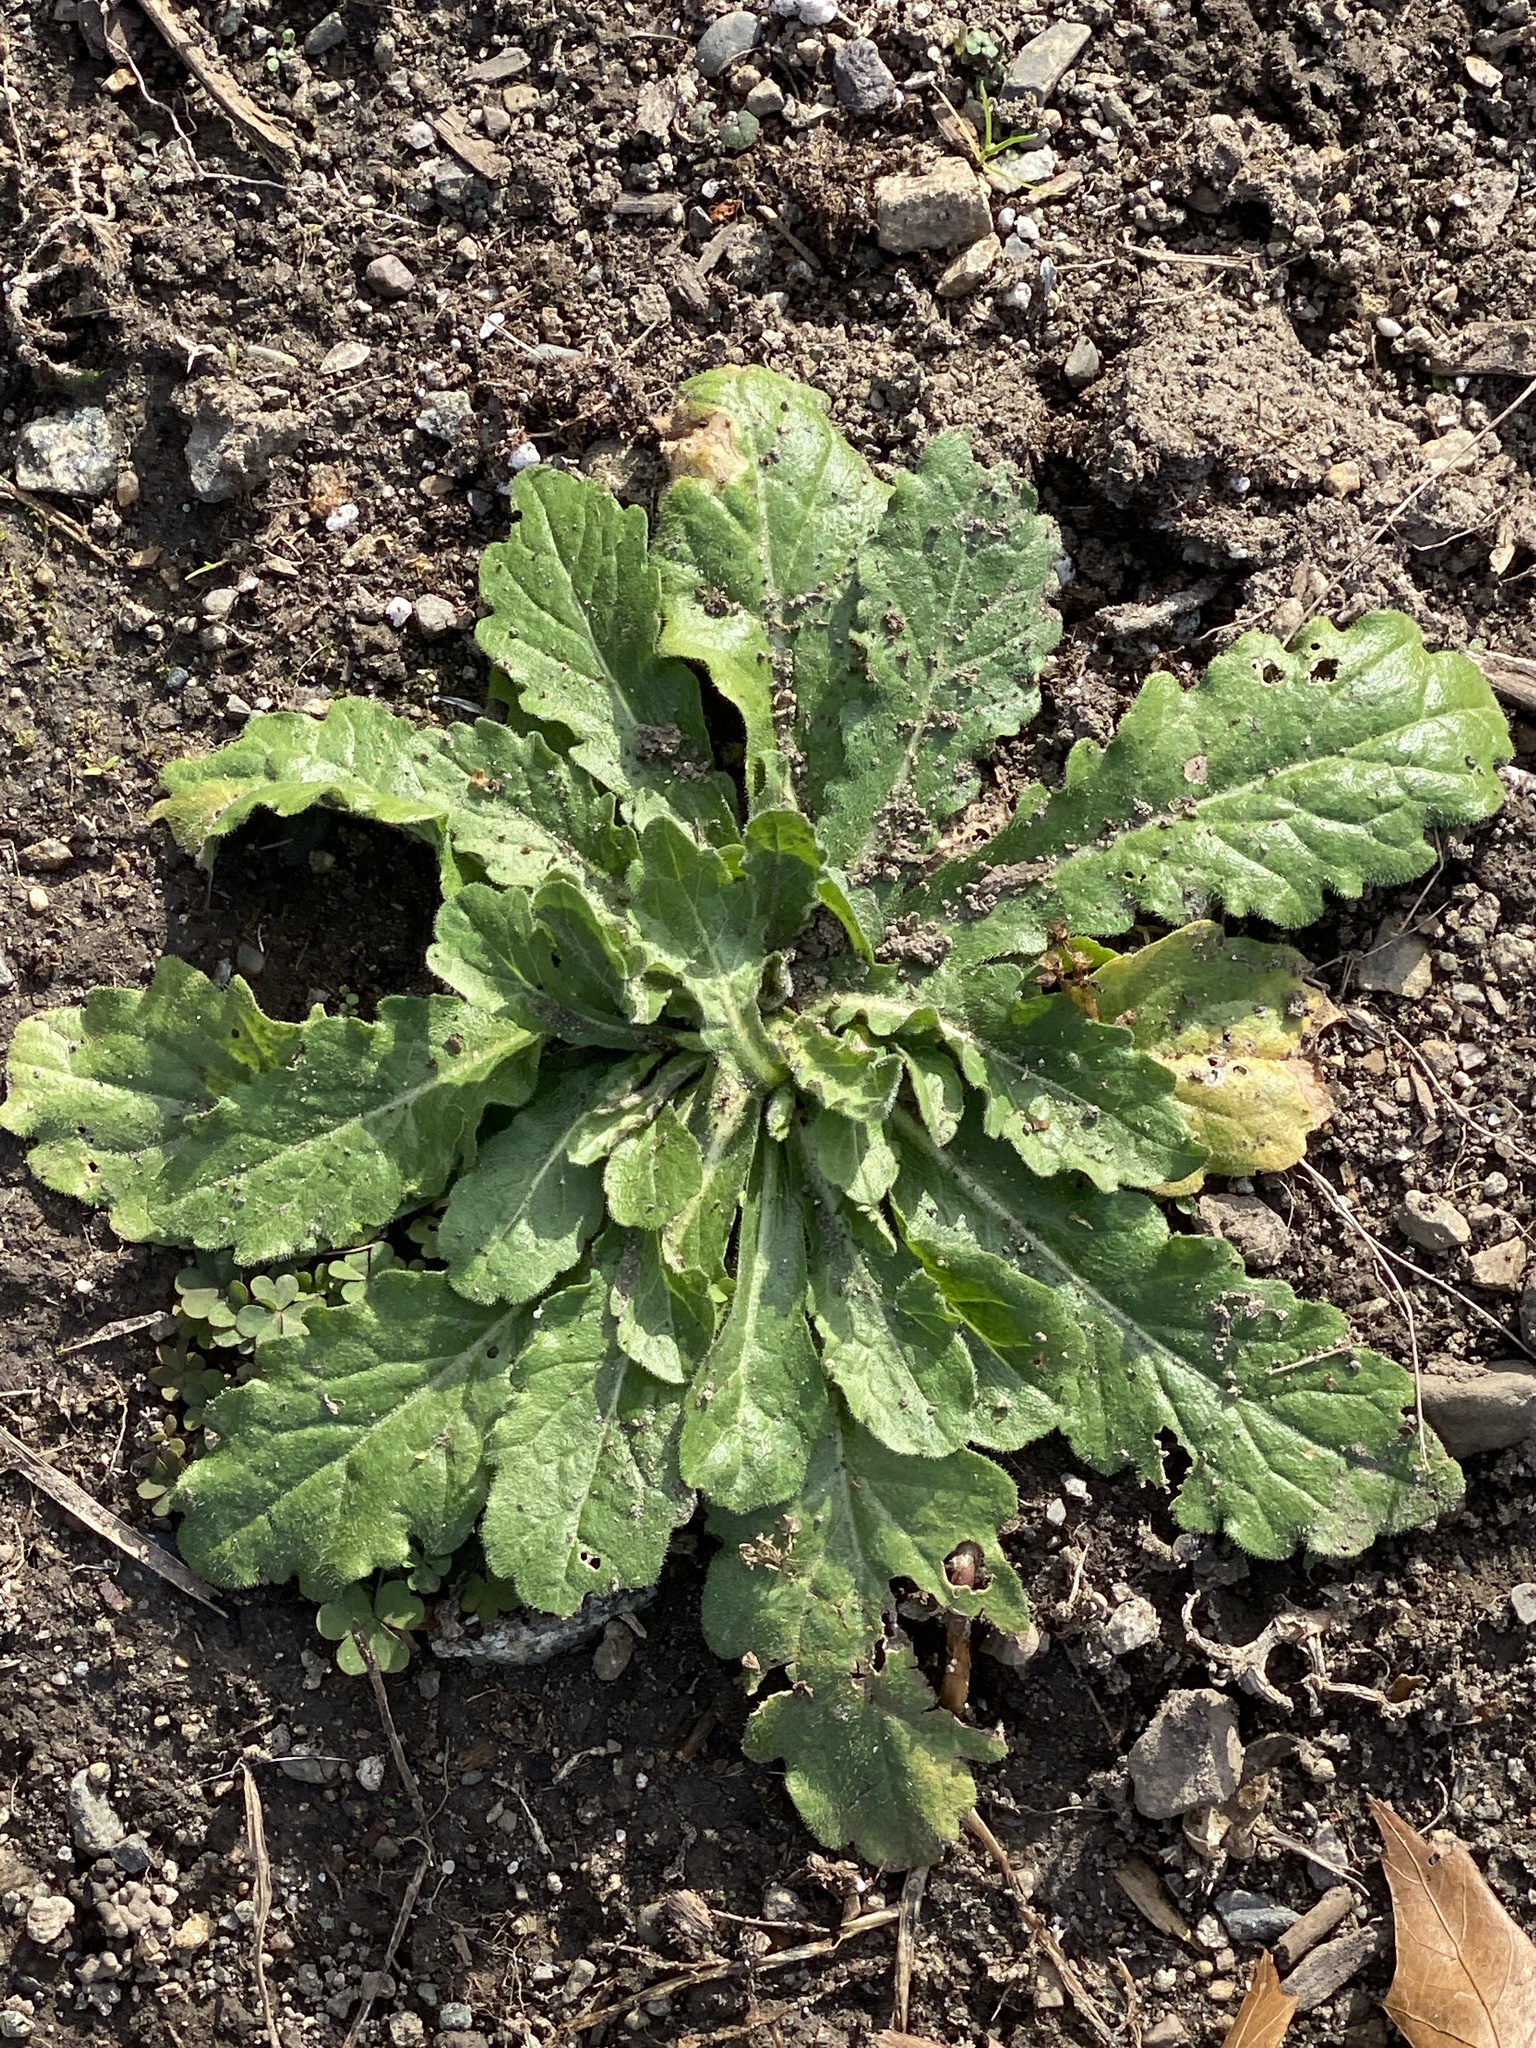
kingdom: Plantae
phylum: Tracheophyta
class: Magnoliopsida
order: Asterales
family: Asteraceae
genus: Hypochaeris
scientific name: Hypochaeris radicata
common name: Flatweed
